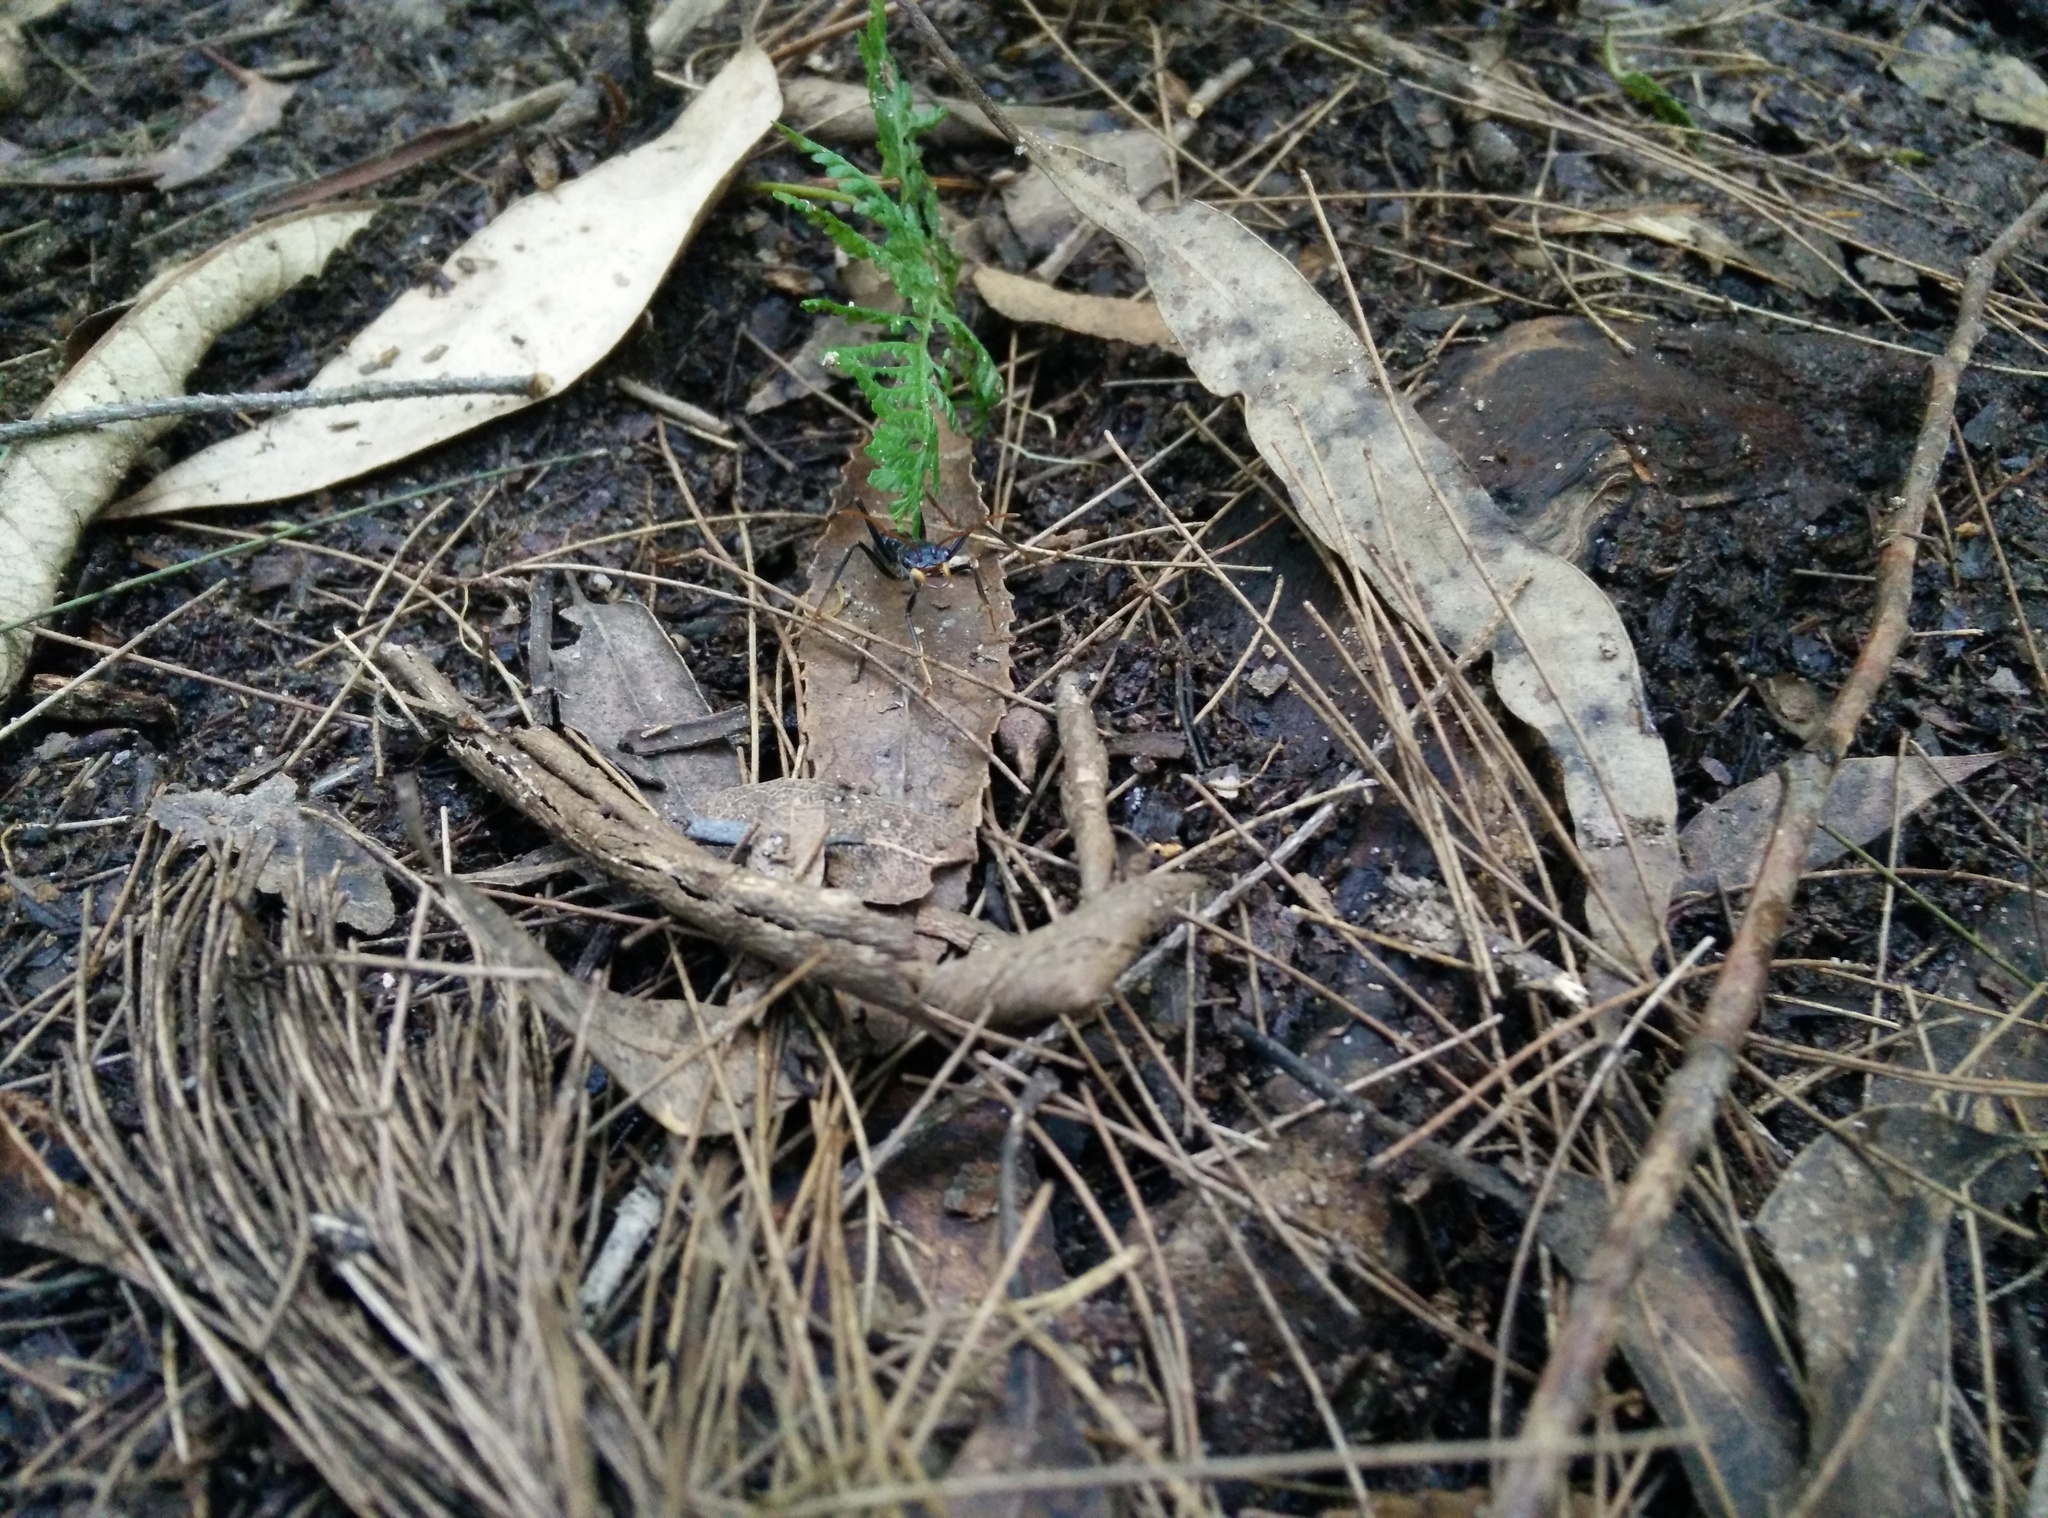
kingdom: Animalia
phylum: Arthropoda
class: Insecta
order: Hymenoptera
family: Formicidae
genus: Myrmecia
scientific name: Myrmecia tarsata
